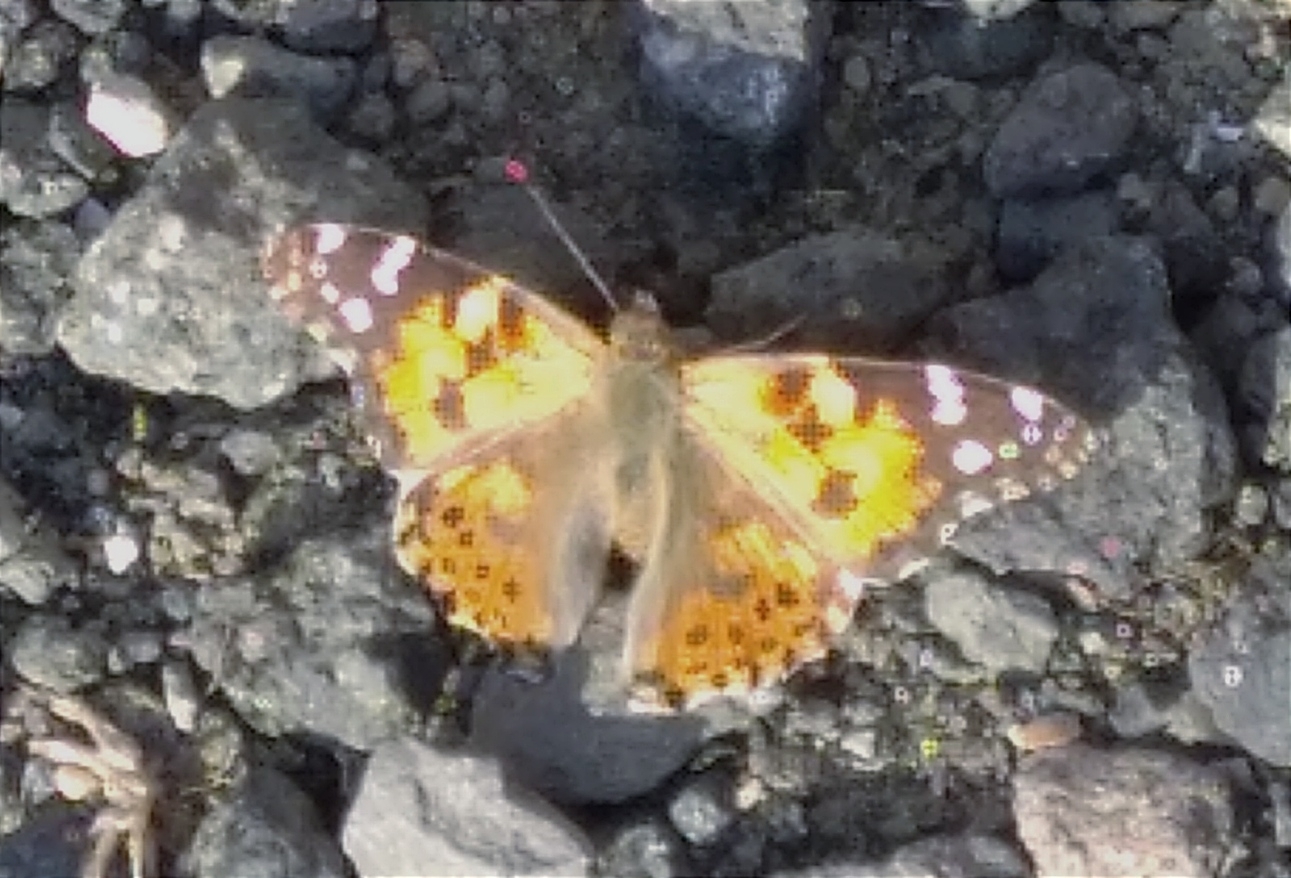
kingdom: Animalia
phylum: Arthropoda
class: Insecta
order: Lepidoptera
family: Nymphalidae
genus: Vanessa
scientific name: Vanessa cardui
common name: Painted lady
